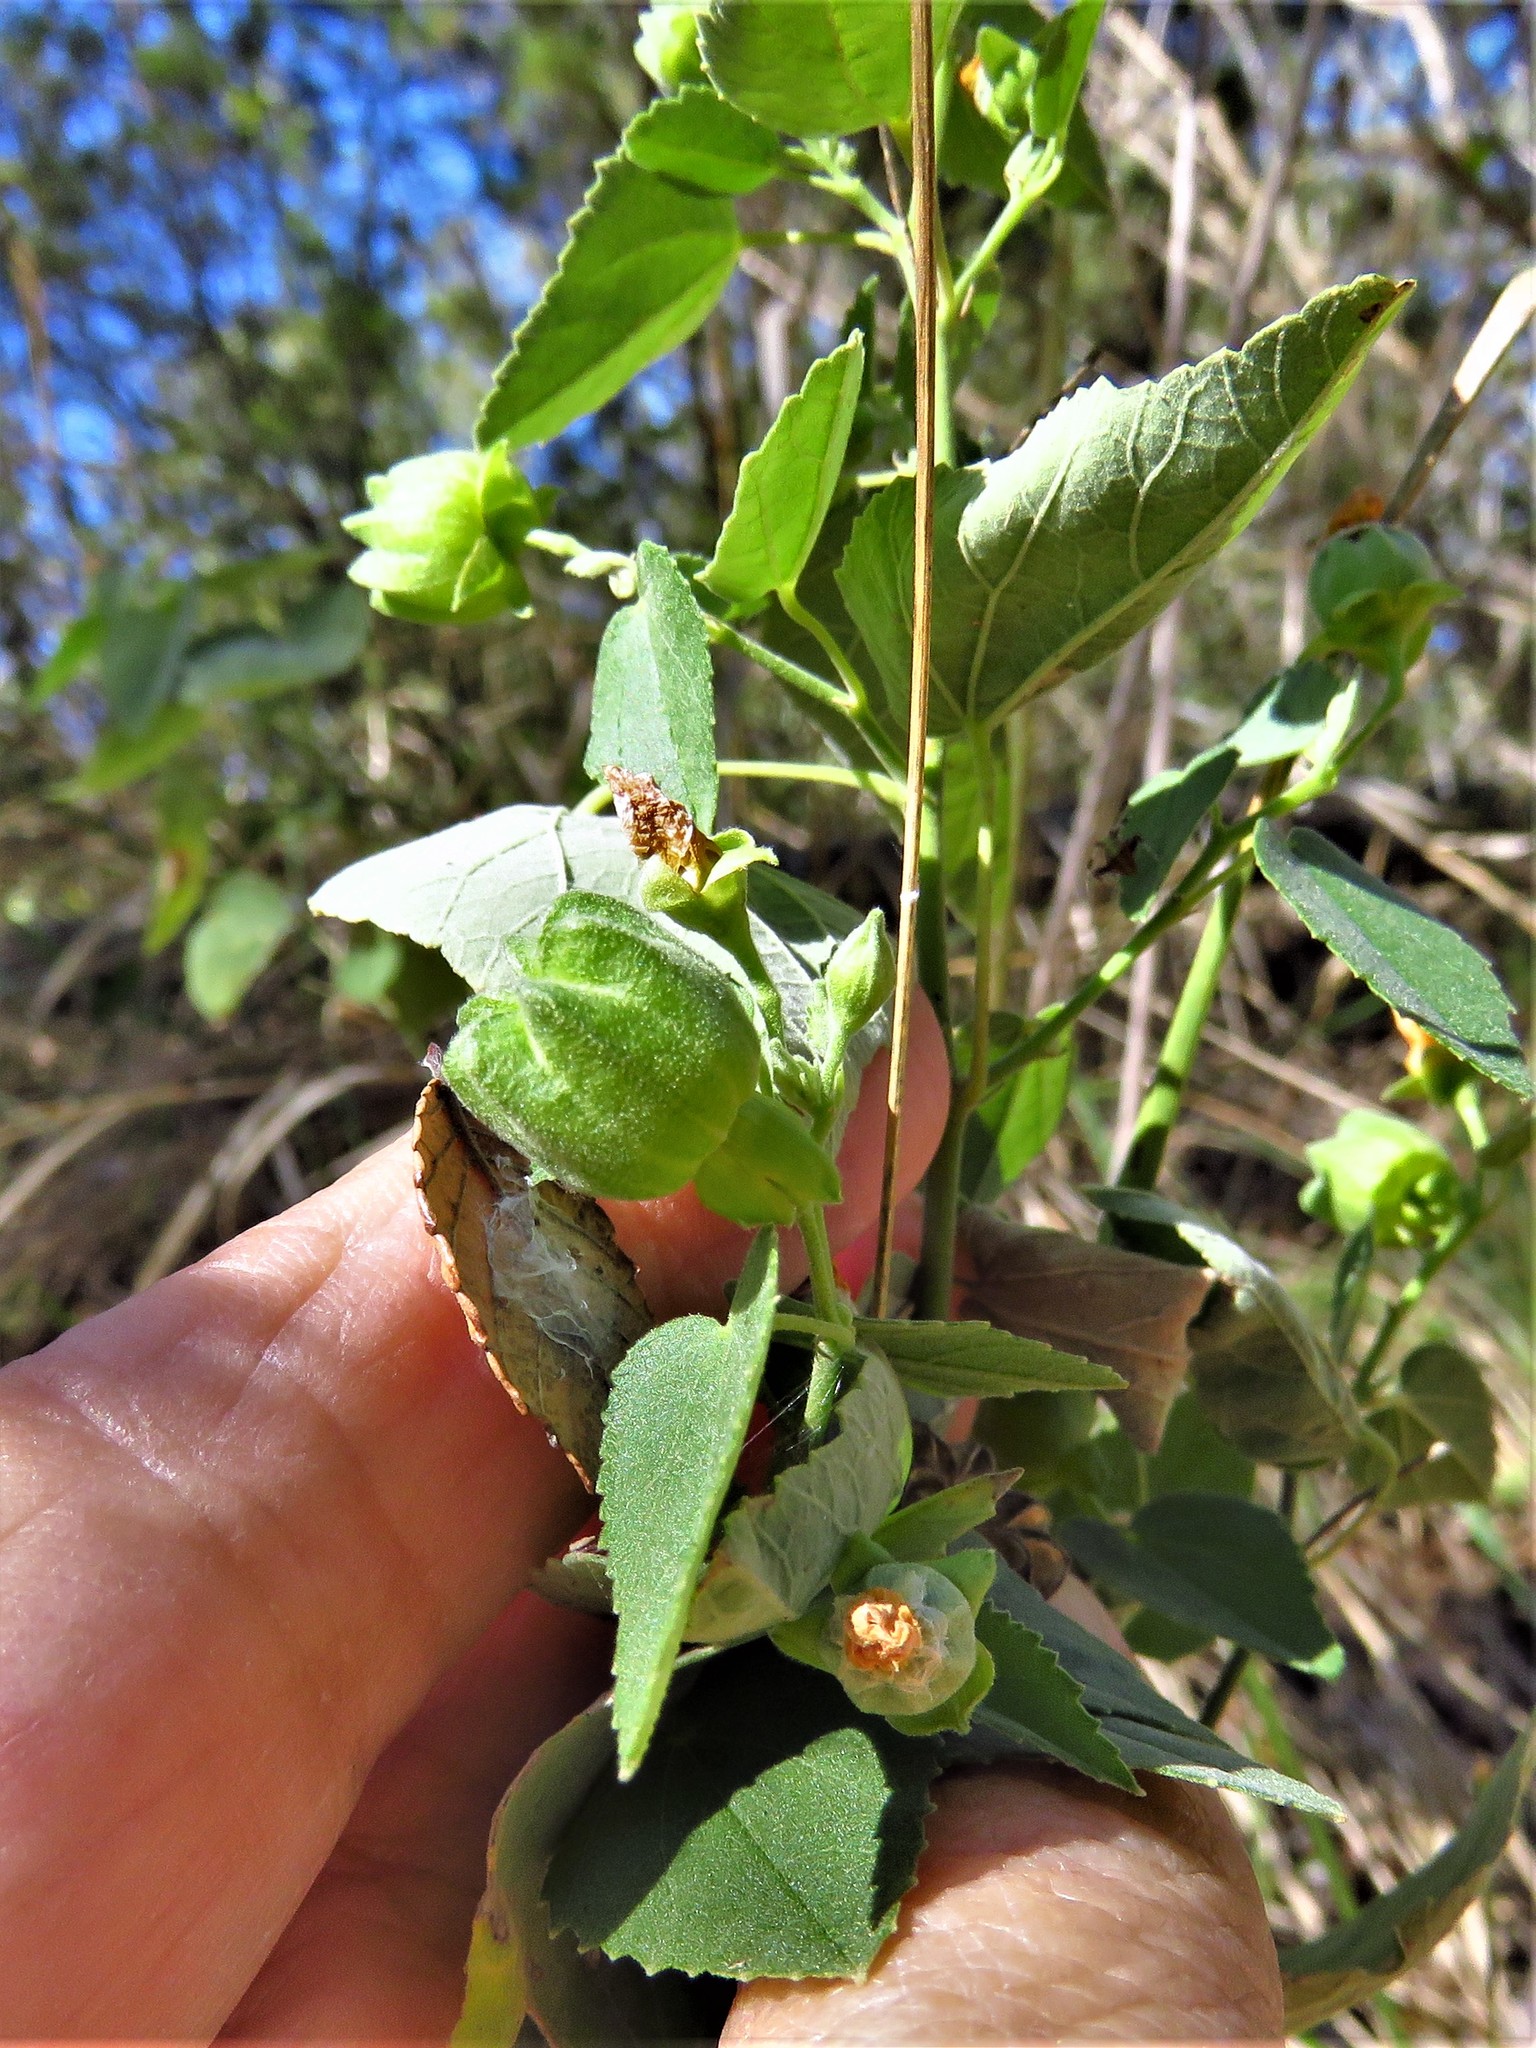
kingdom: Plantae
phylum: Tracheophyta
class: Magnoliopsida
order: Malvales
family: Malvaceae
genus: Abutilon
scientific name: Abutilon fruticosum
